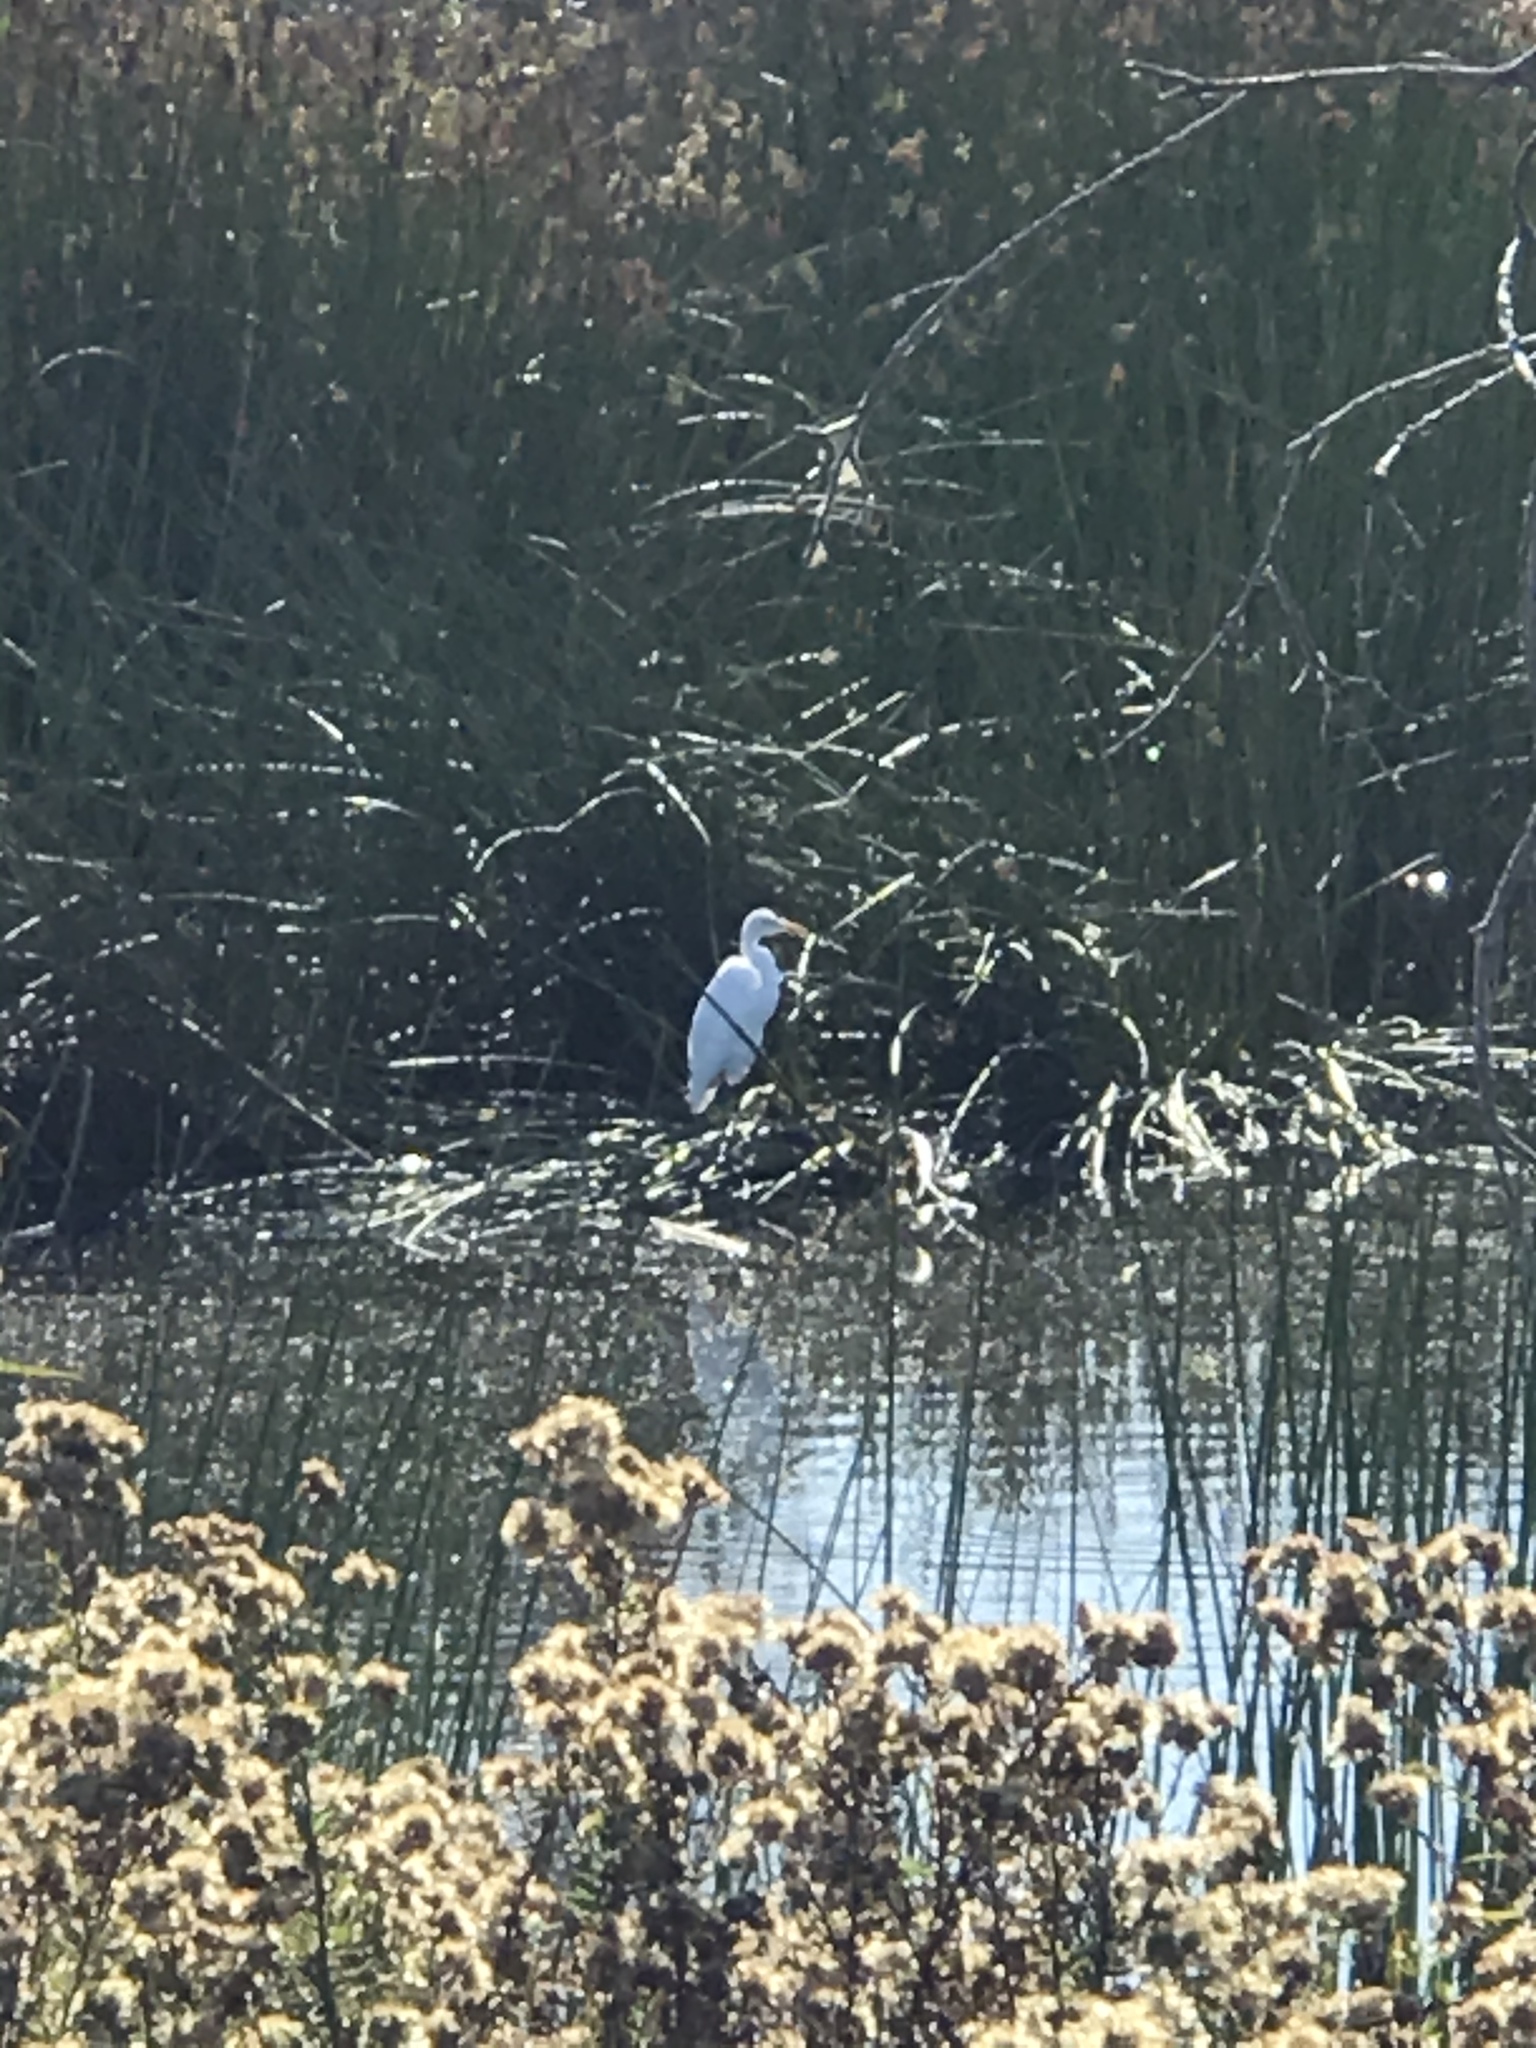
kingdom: Animalia
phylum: Chordata
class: Aves
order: Pelecaniformes
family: Ardeidae
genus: Ardea
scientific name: Ardea alba
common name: Great egret
